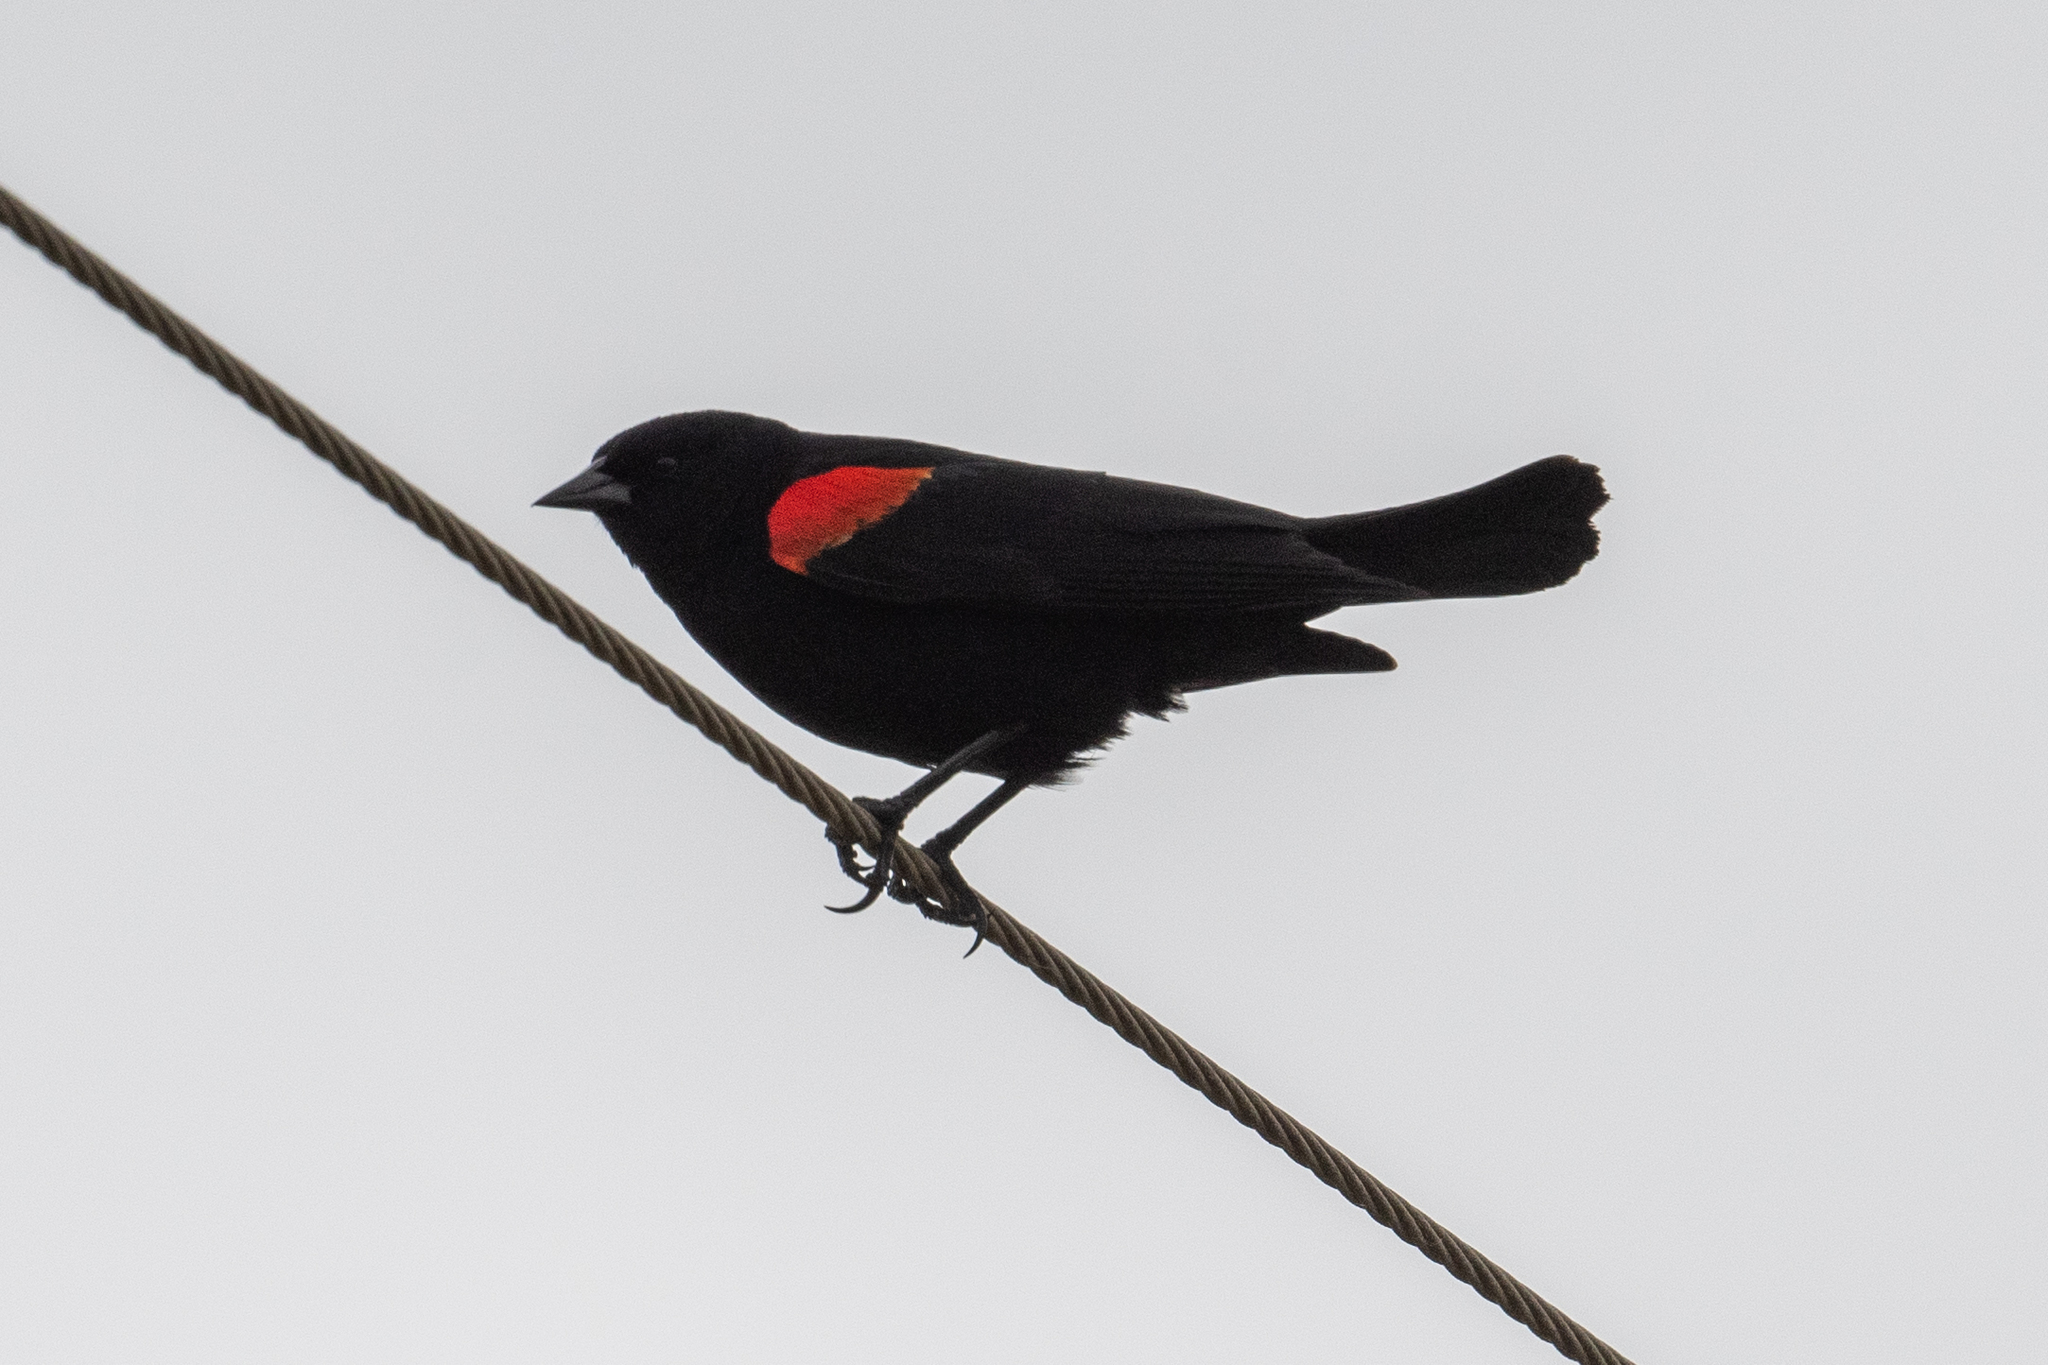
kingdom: Animalia
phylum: Chordata
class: Aves
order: Passeriformes
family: Icteridae
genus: Agelaius
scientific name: Agelaius phoeniceus
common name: Red-winged blackbird
